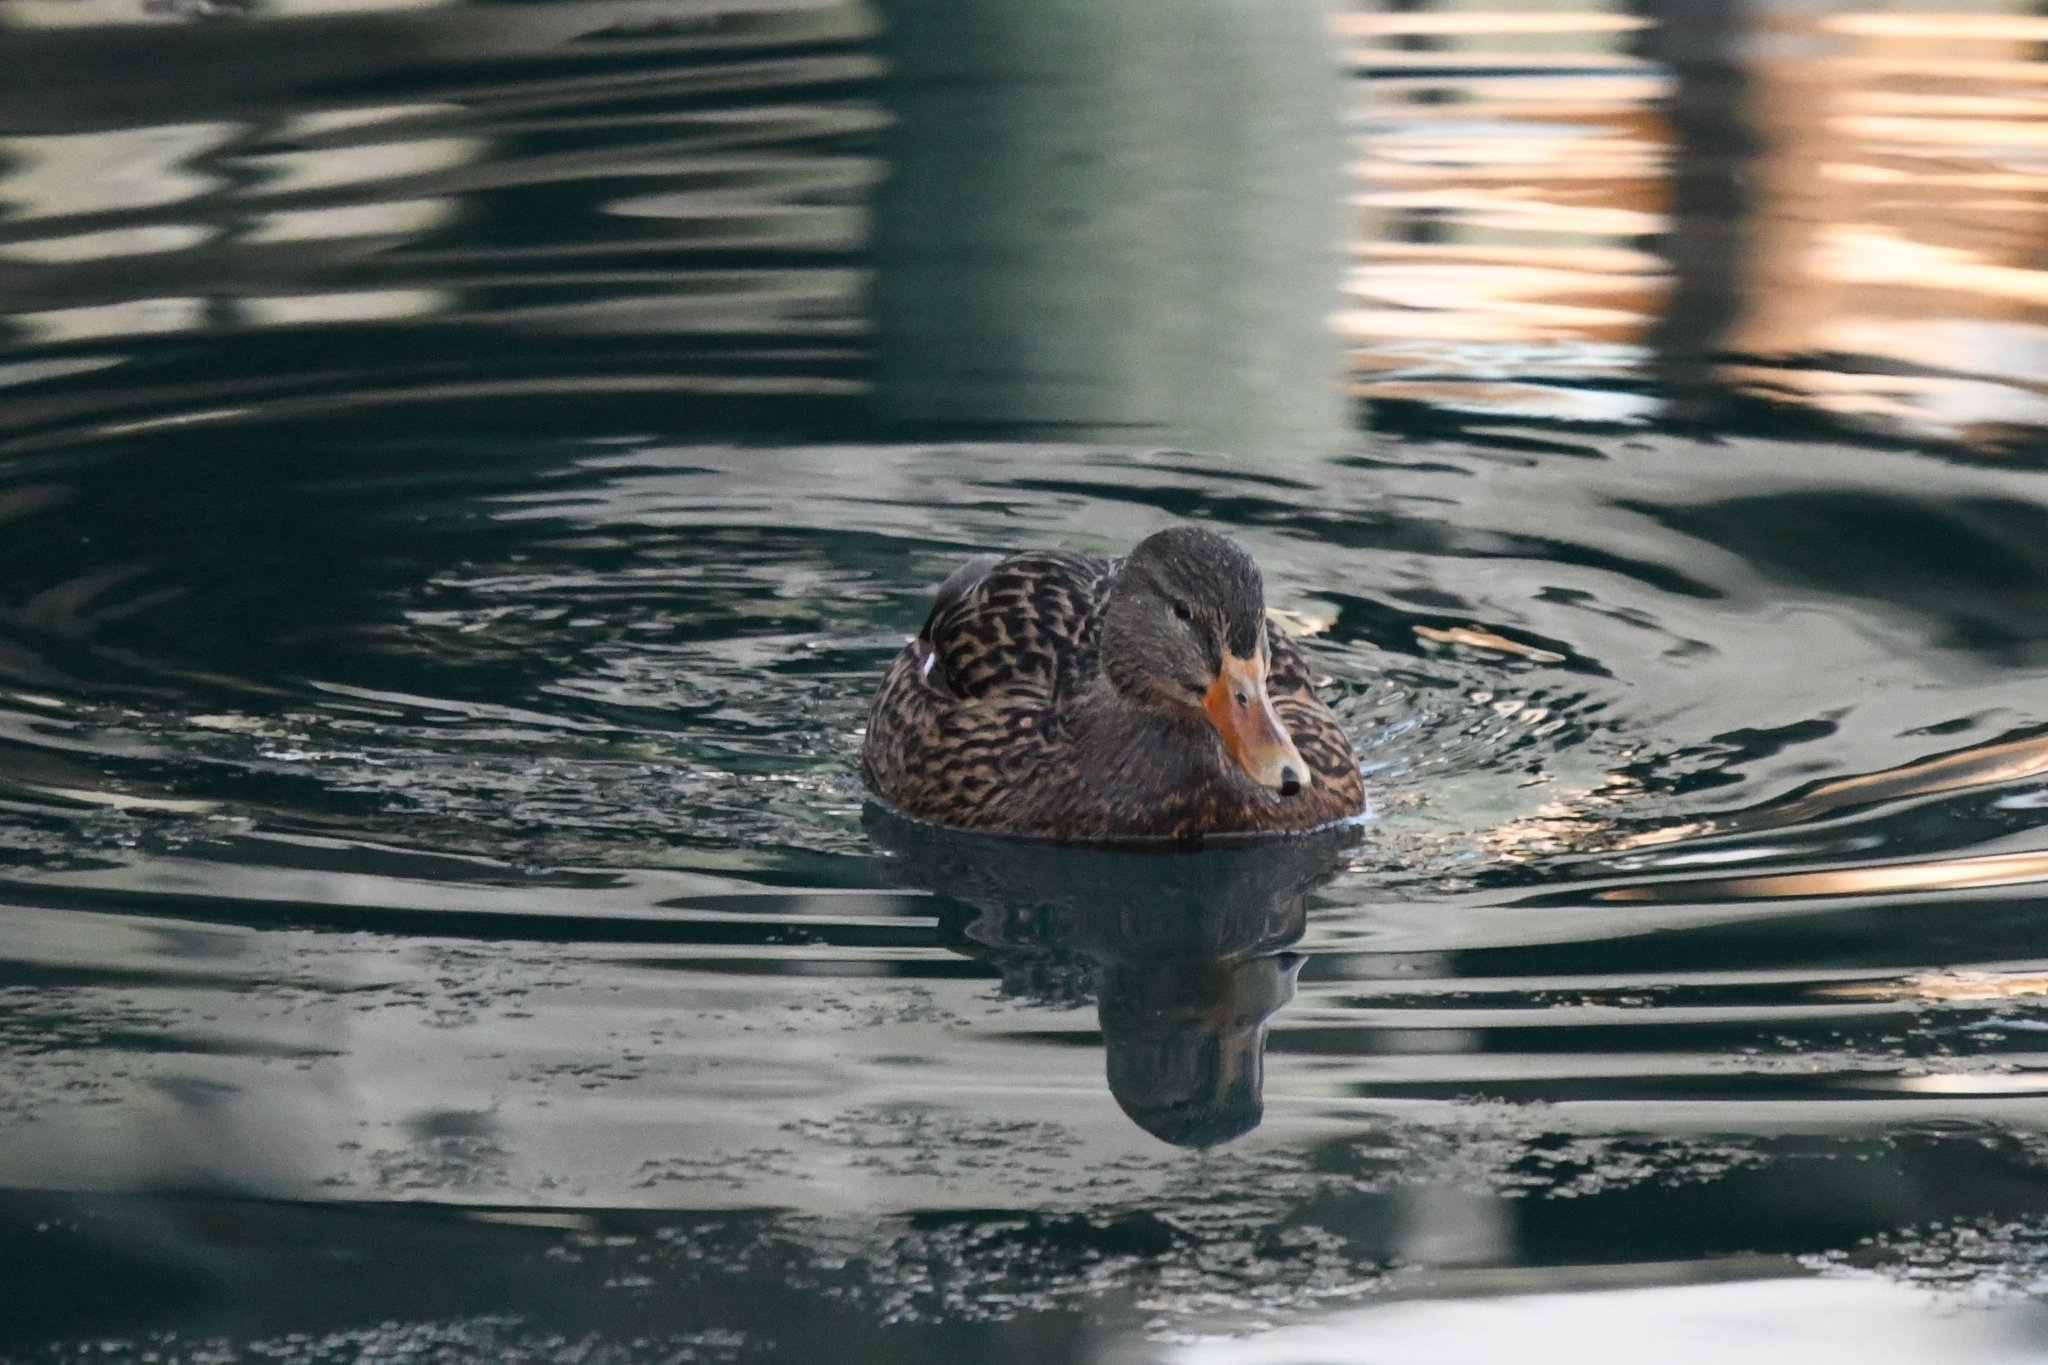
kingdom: Animalia
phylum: Chordata
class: Aves
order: Anseriformes
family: Anatidae
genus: Anas
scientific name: Anas platyrhynchos
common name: Mallard
